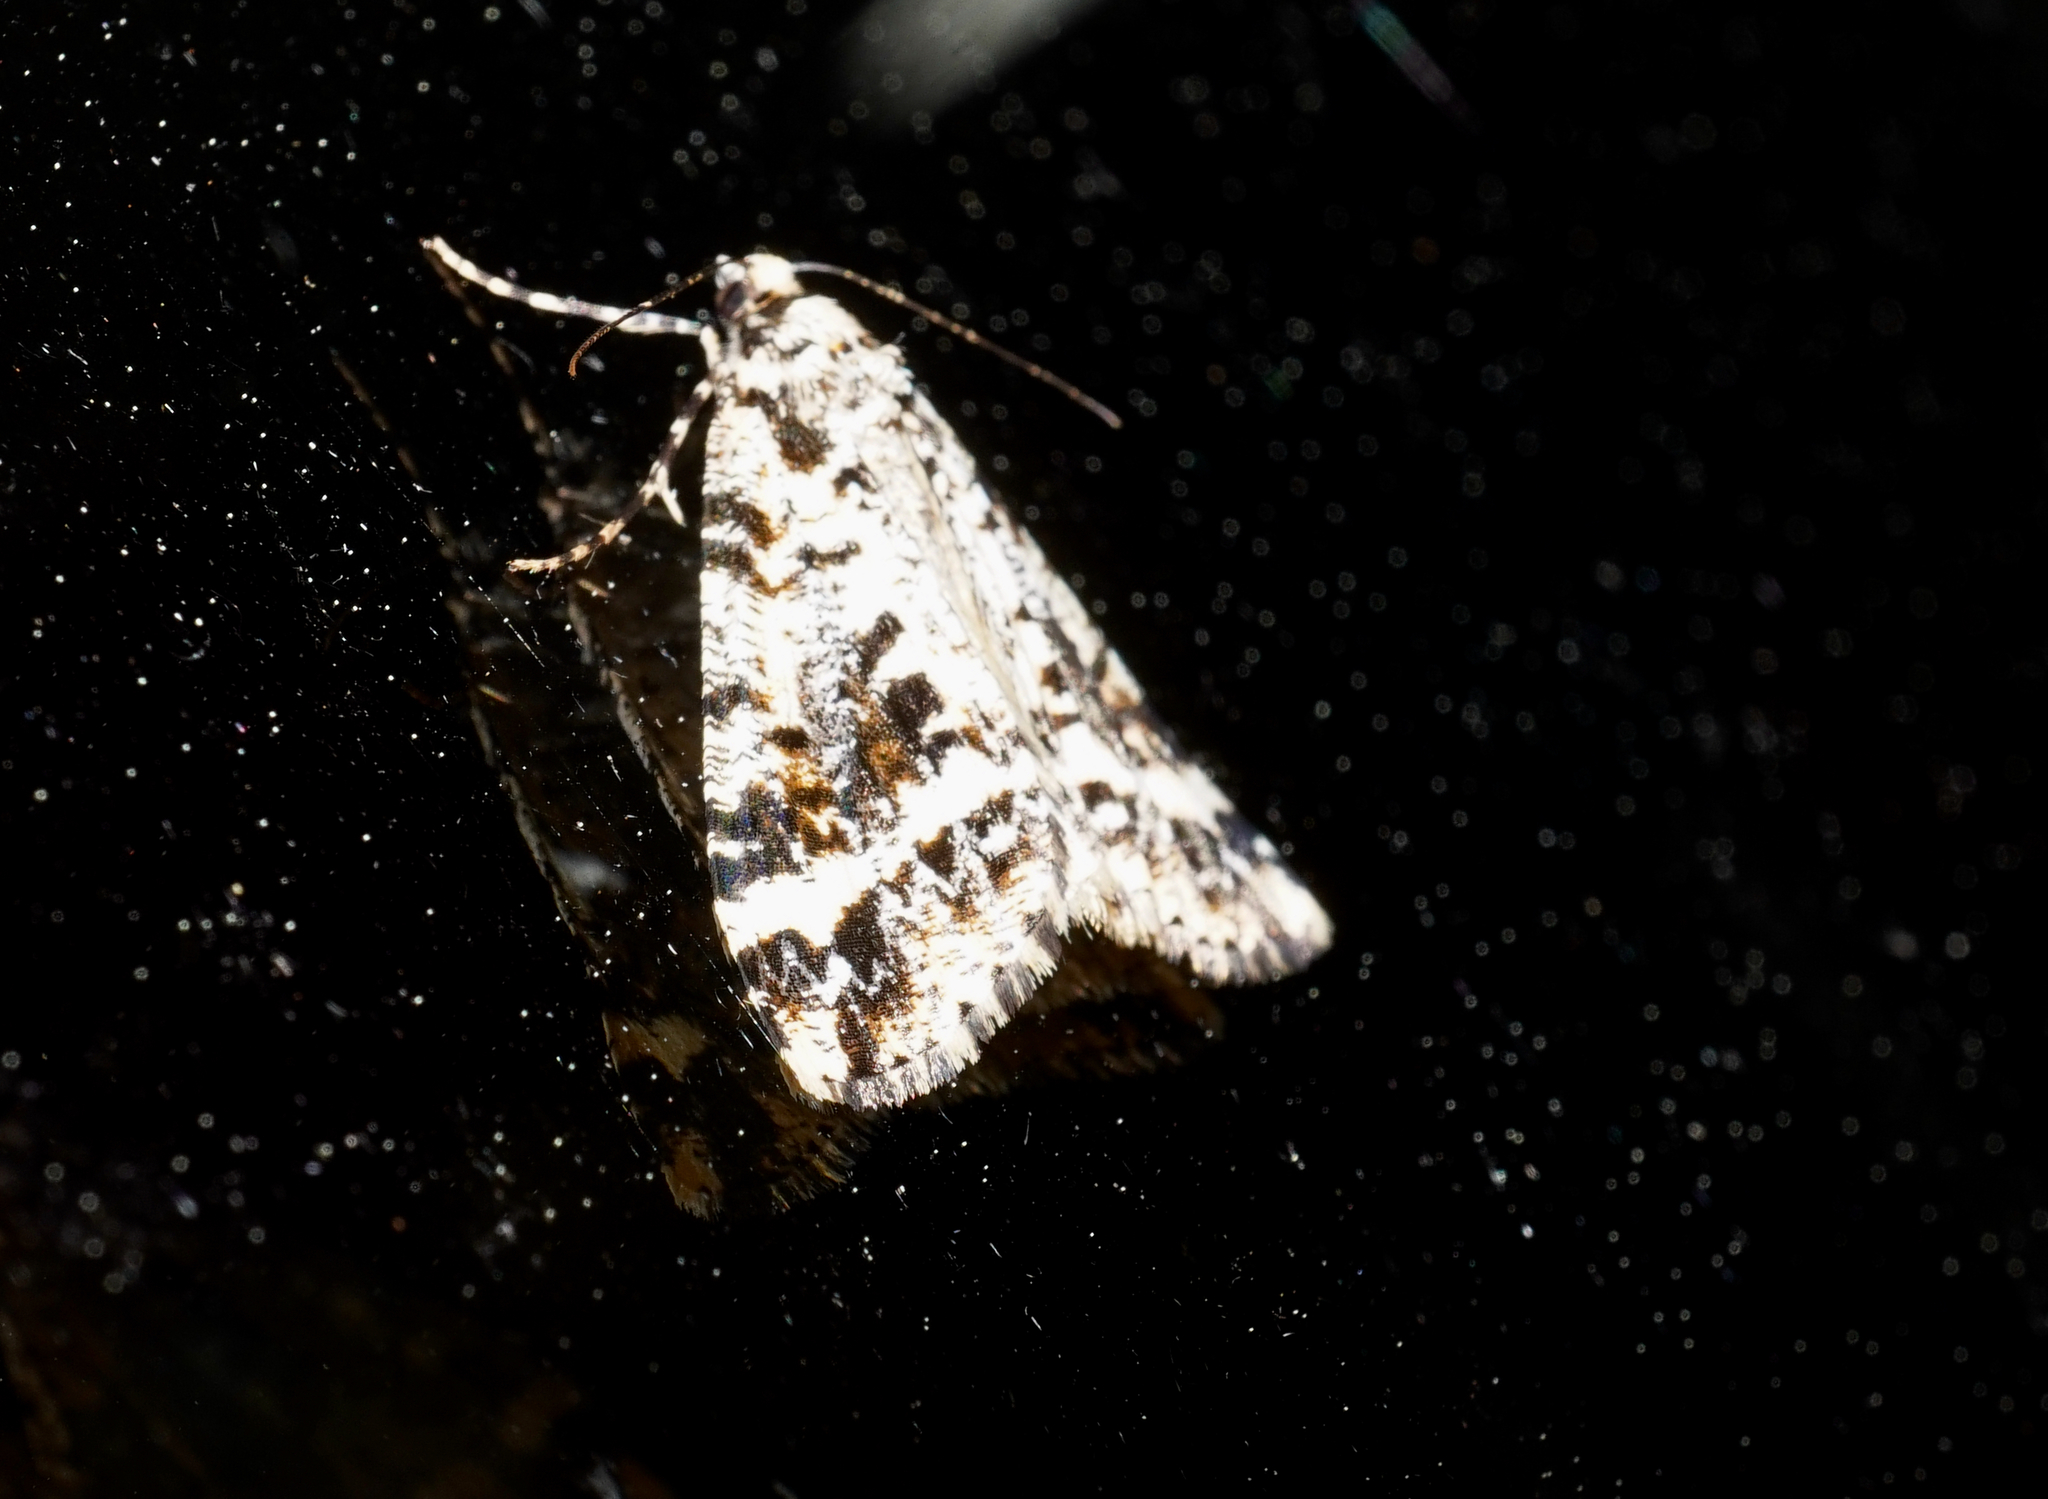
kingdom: Animalia
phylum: Arthropoda
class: Insecta
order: Lepidoptera
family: Geometridae
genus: Pseudocoremia
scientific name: Pseudocoremia leucelaea
